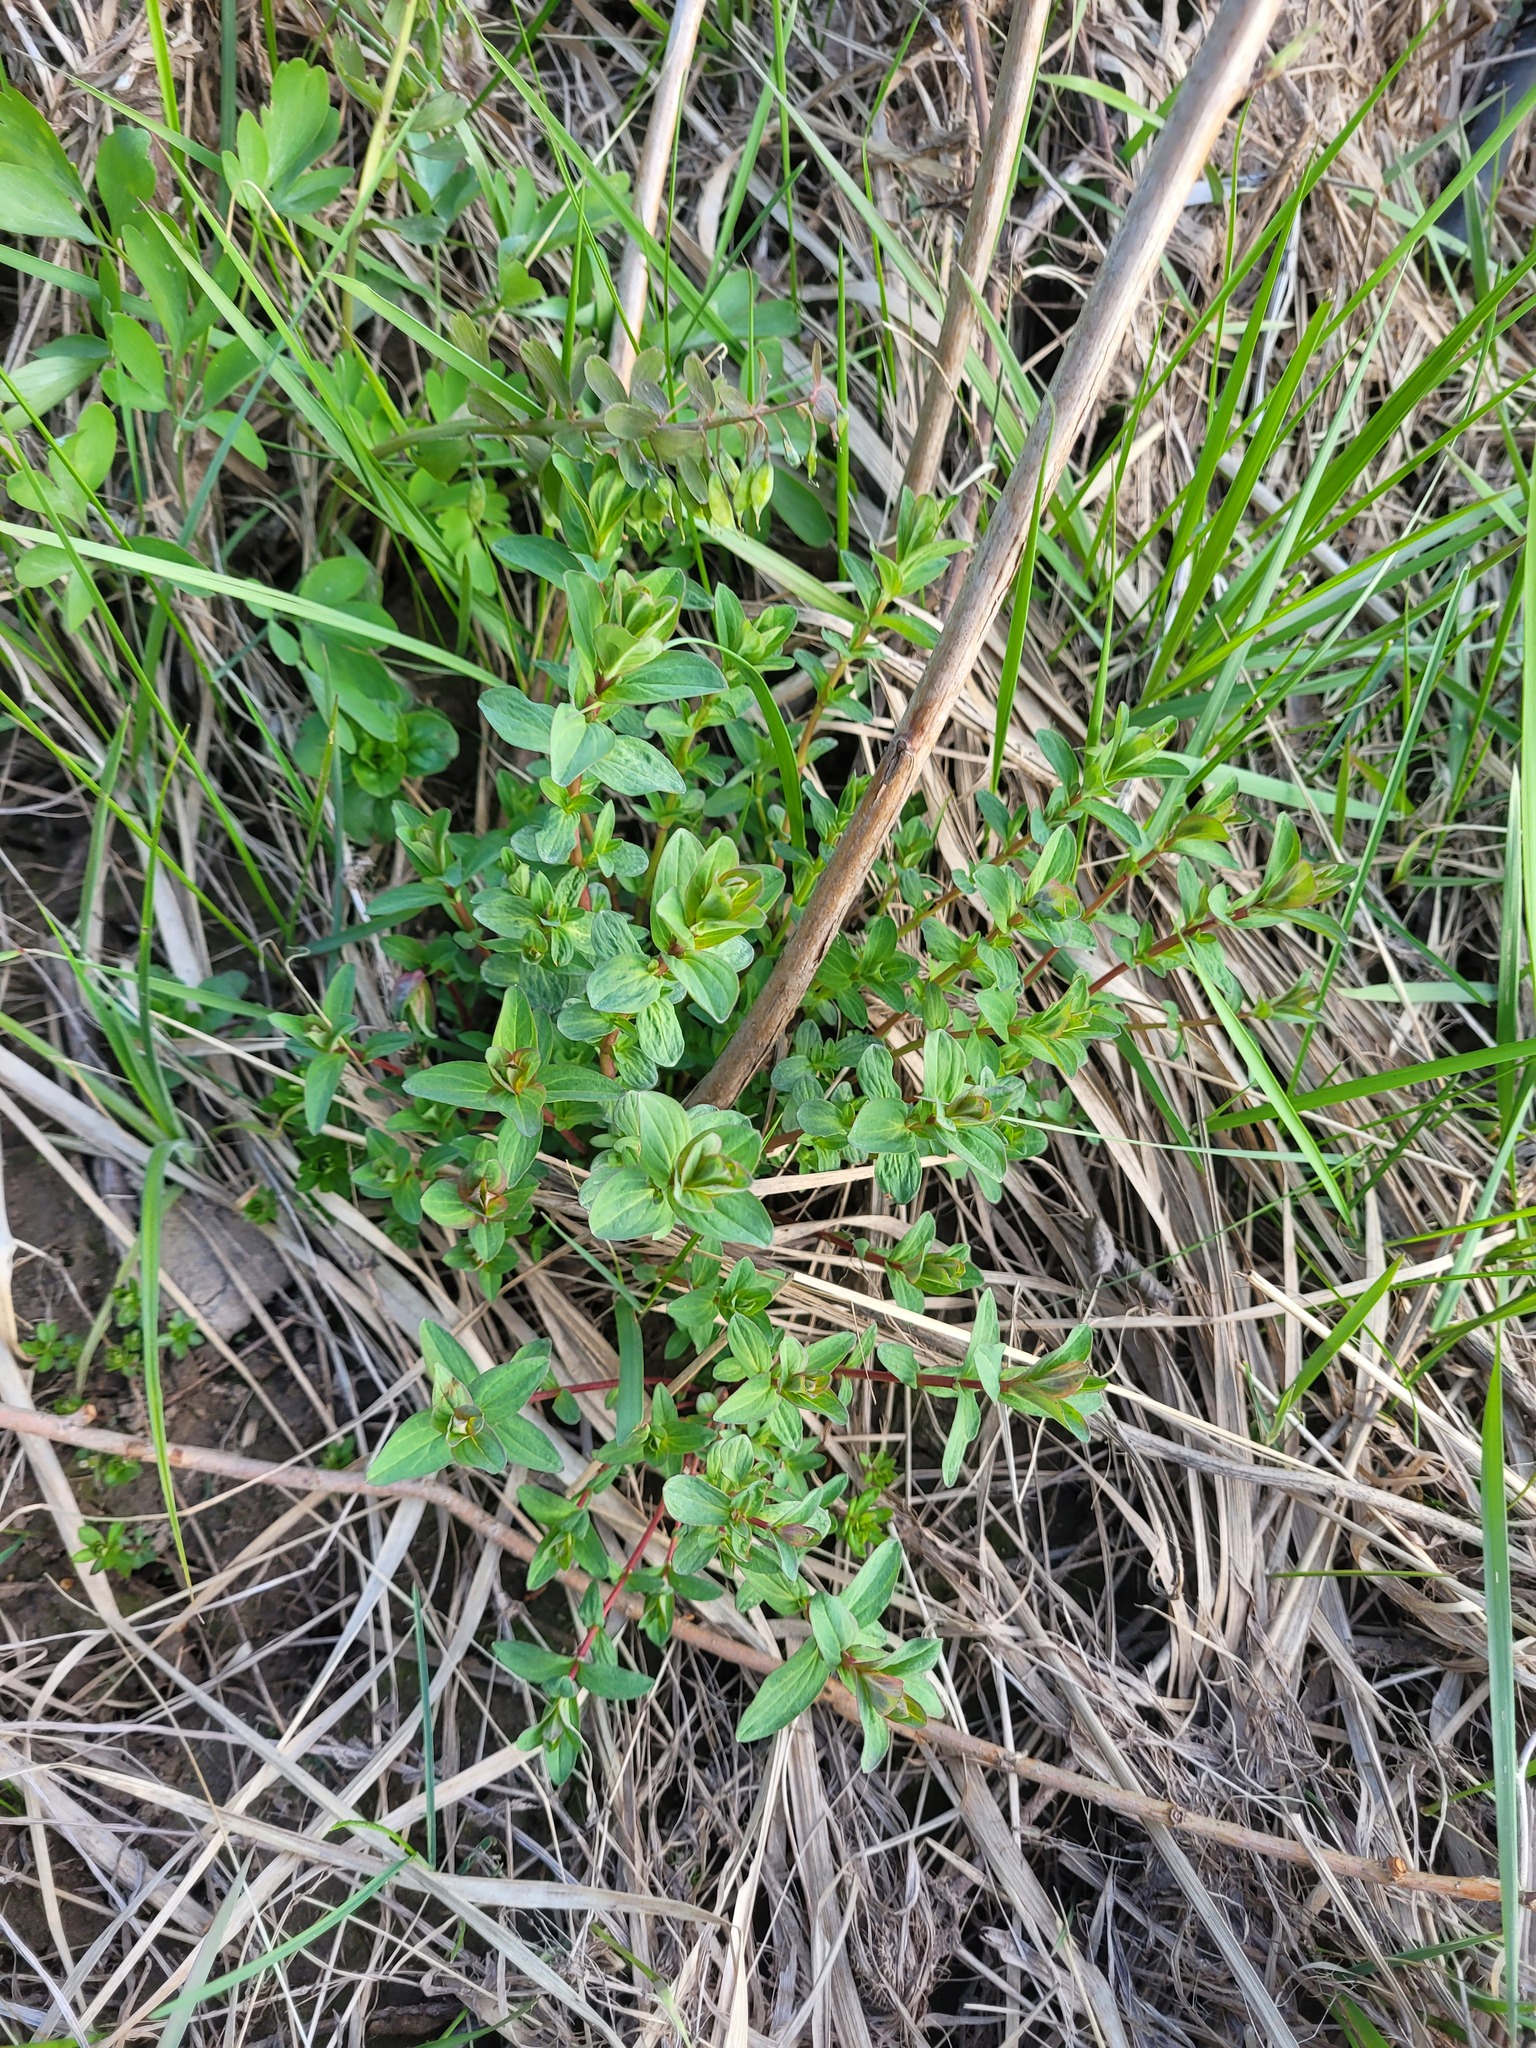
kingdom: Plantae
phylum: Tracheophyta
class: Magnoliopsida
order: Malpighiales
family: Hypericaceae
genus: Hypericum
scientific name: Hypericum perforatum
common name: Common st. johnswort
